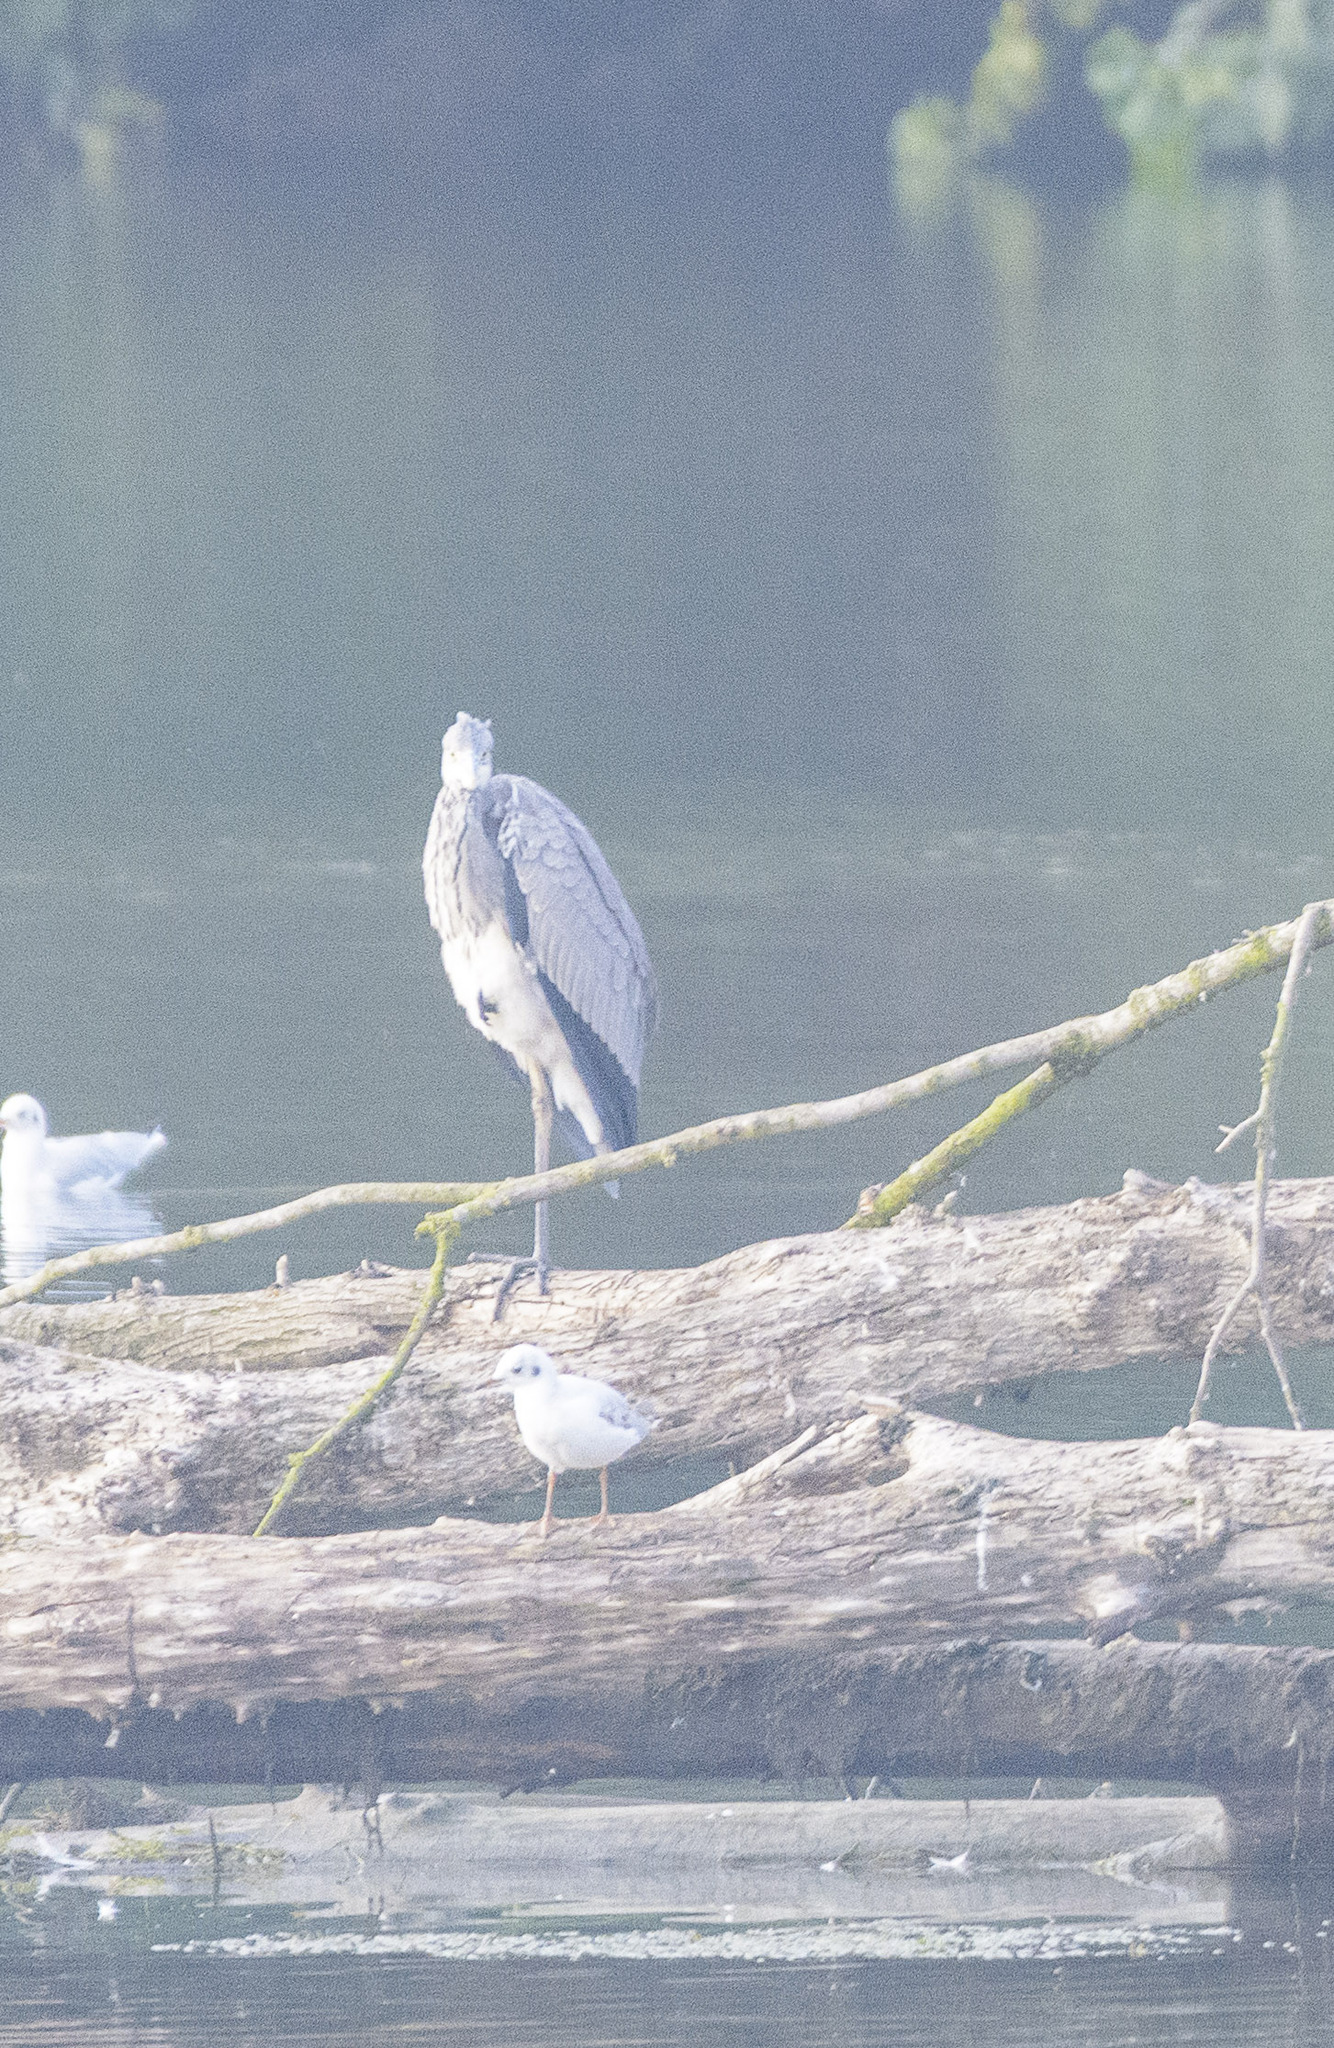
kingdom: Animalia
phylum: Chordata
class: Aves
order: Pelecaniformes
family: Ardeidae
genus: Ardea
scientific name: Ardea cinerea
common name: Grey heron
